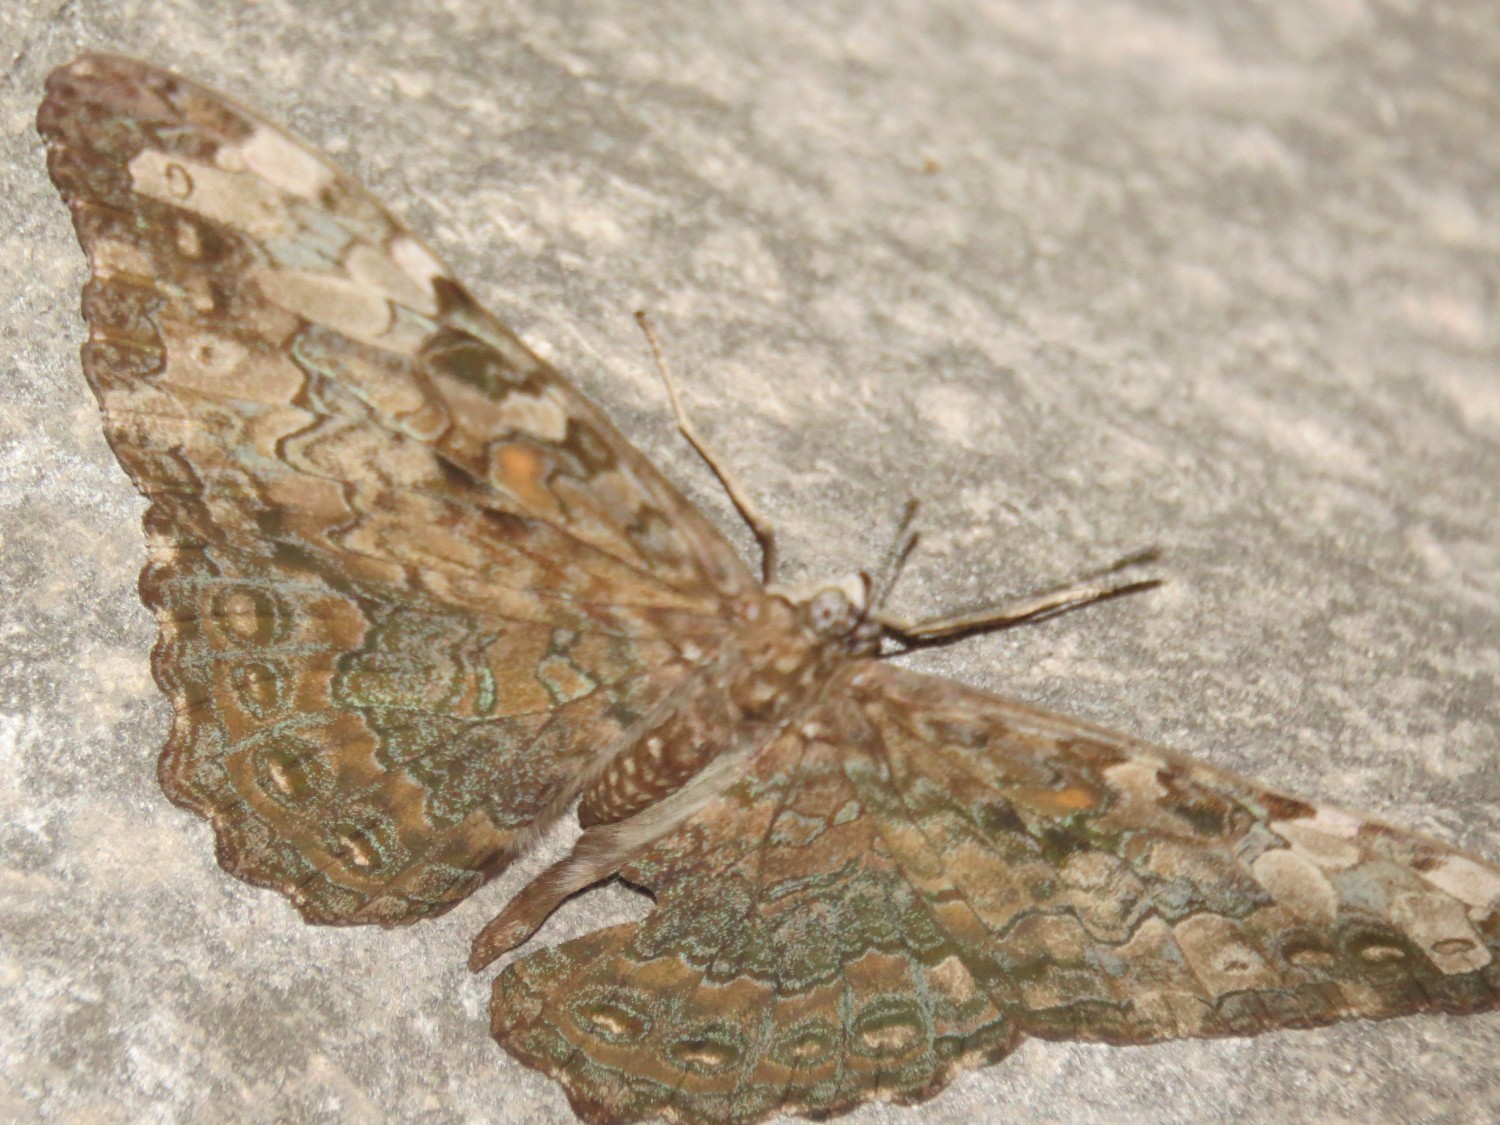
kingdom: Animalia
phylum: Arthropoda
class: Insecta
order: Lepidoptera
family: Nymphalidae
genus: Hamadryas
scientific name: Hamadryas epinome
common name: Epinome cracker
